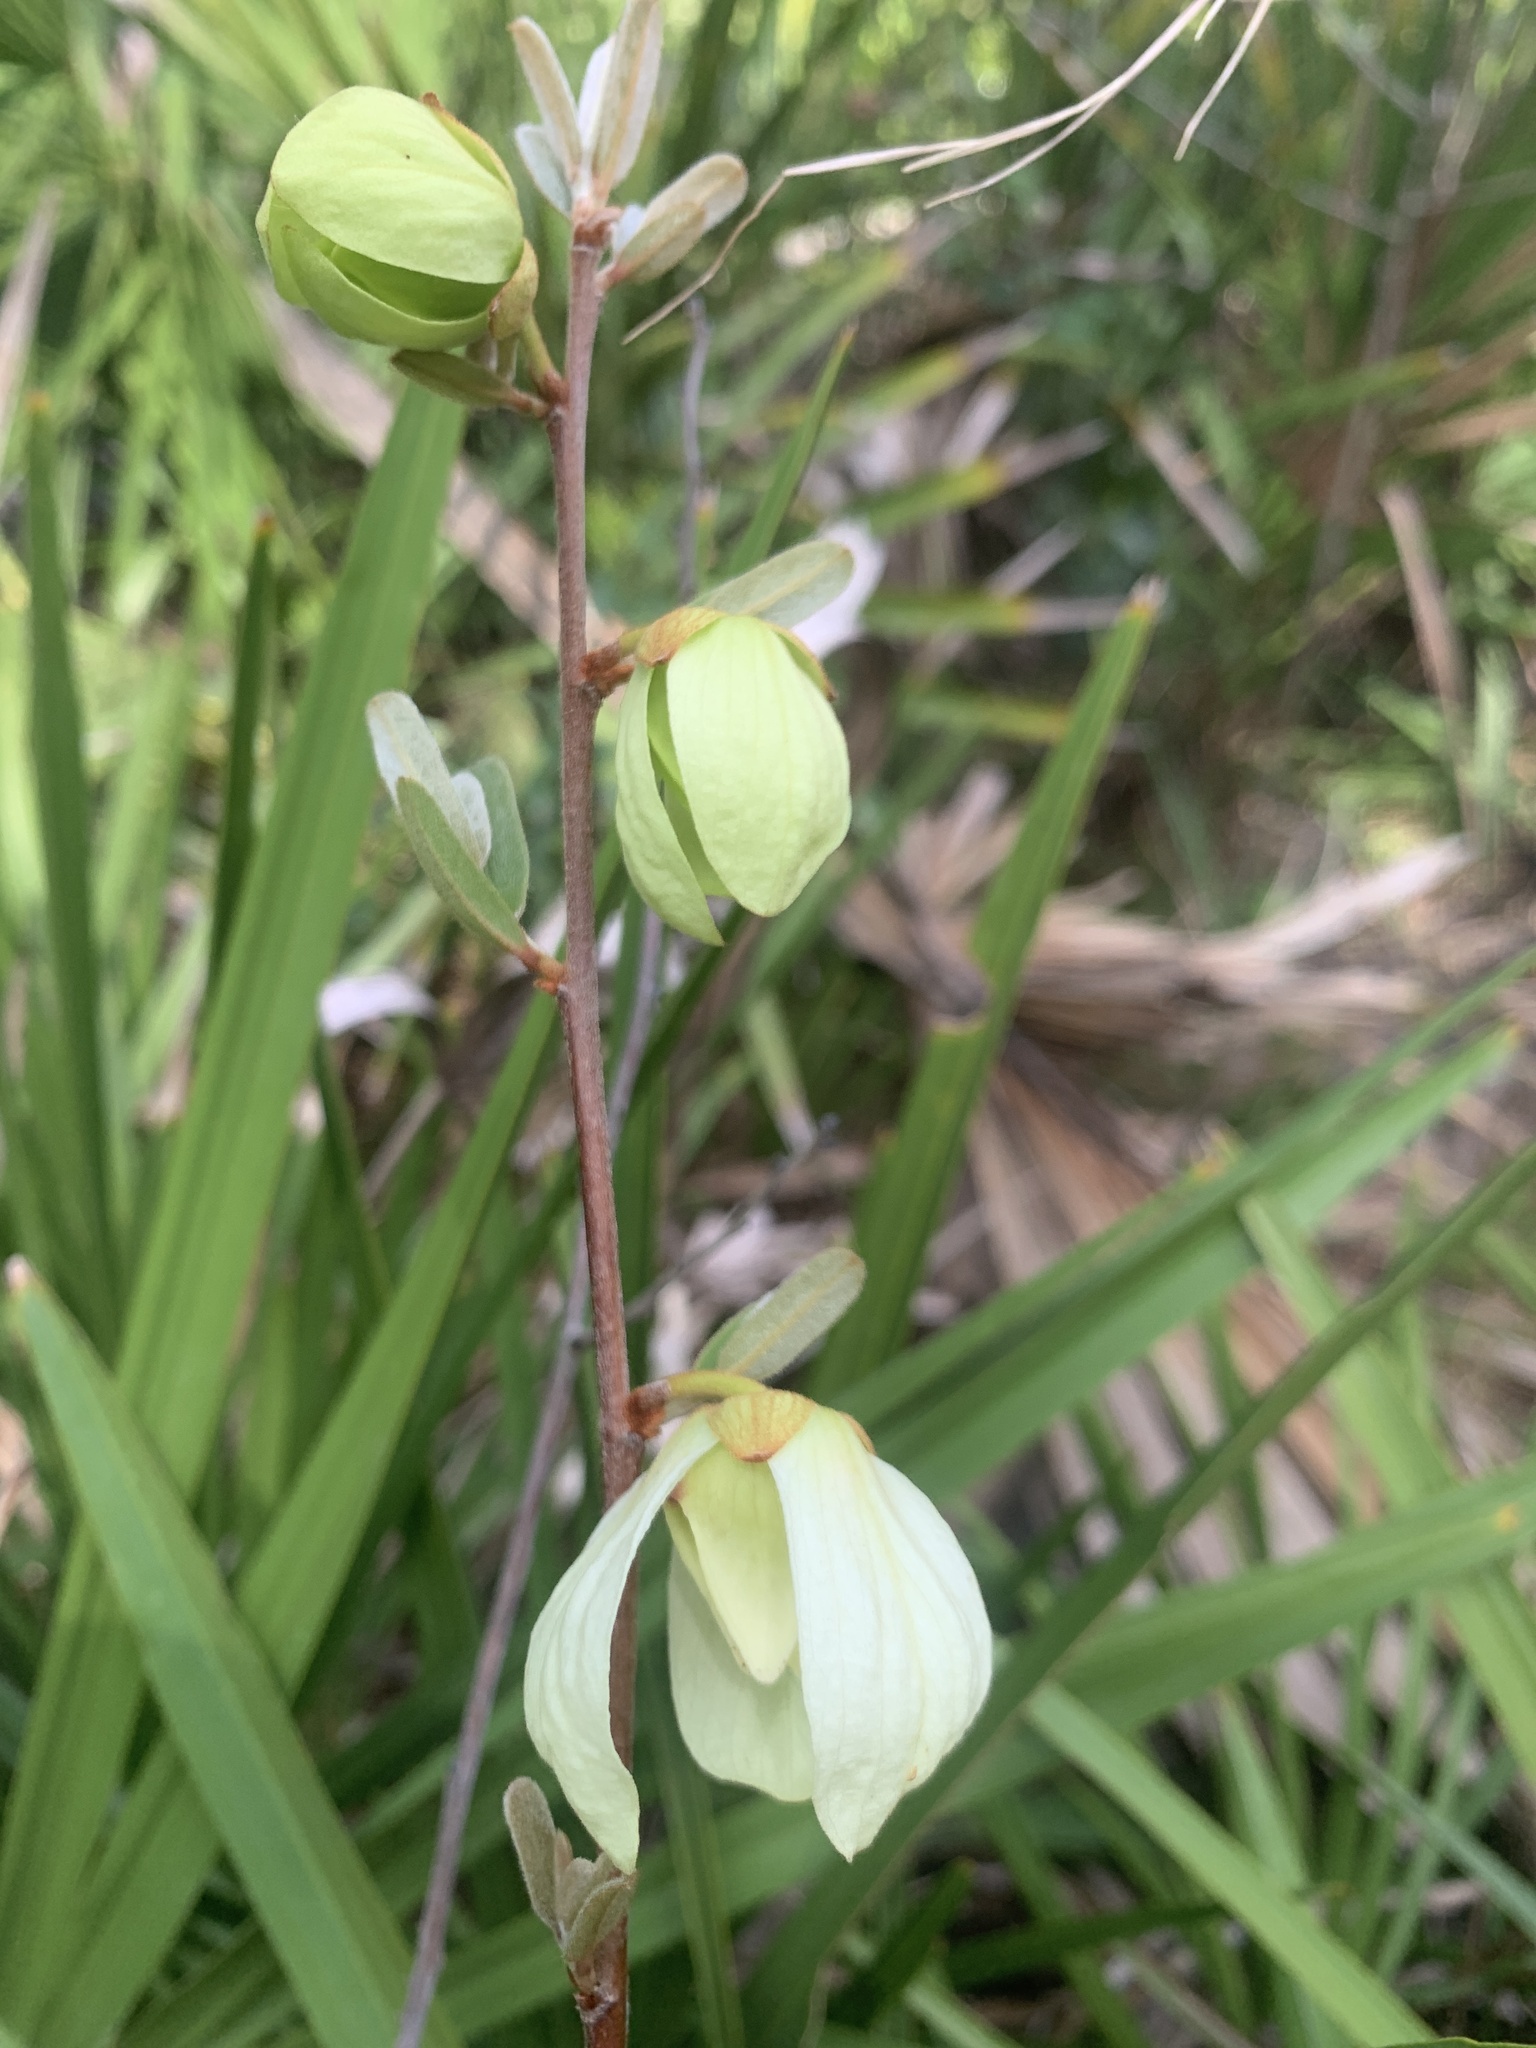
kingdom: Plantae
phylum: Tracheophyta
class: Magnoliopsida
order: Magnoliales
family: Annonaceae
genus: Asimina
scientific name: Asimina reticulata
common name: Flag pawpaw
